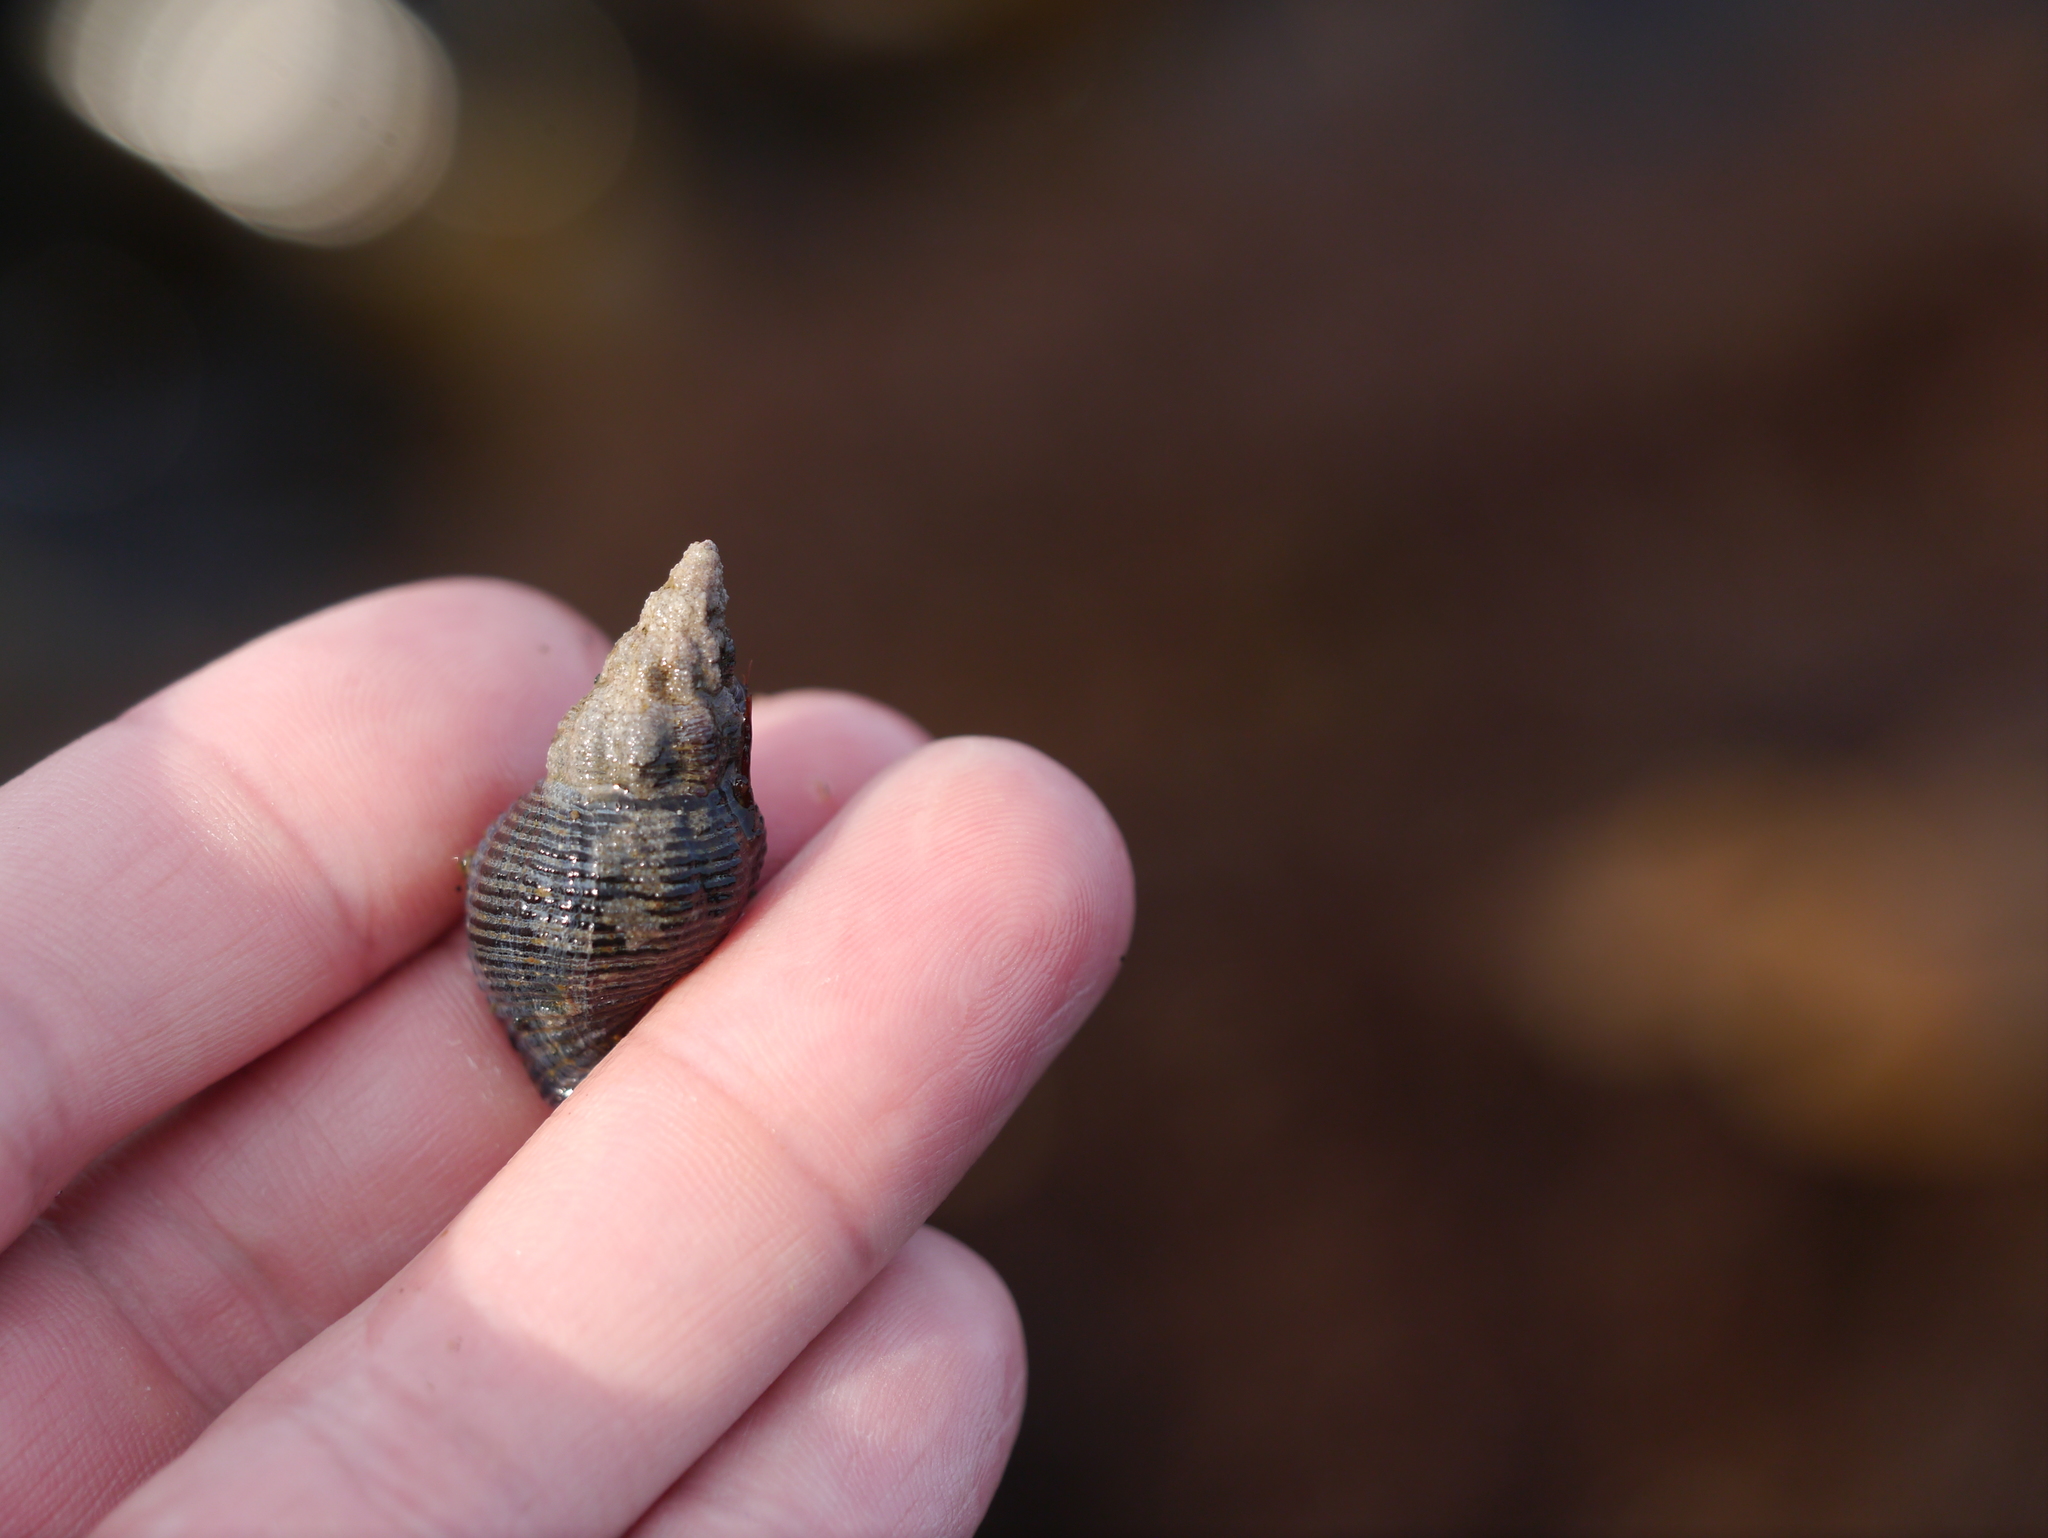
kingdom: Animalia
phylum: Mollusca
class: Gastropoda
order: Neogastropoda
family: Tudiclidae
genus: Lirabuccinum
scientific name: Lirabuccinum dirum
